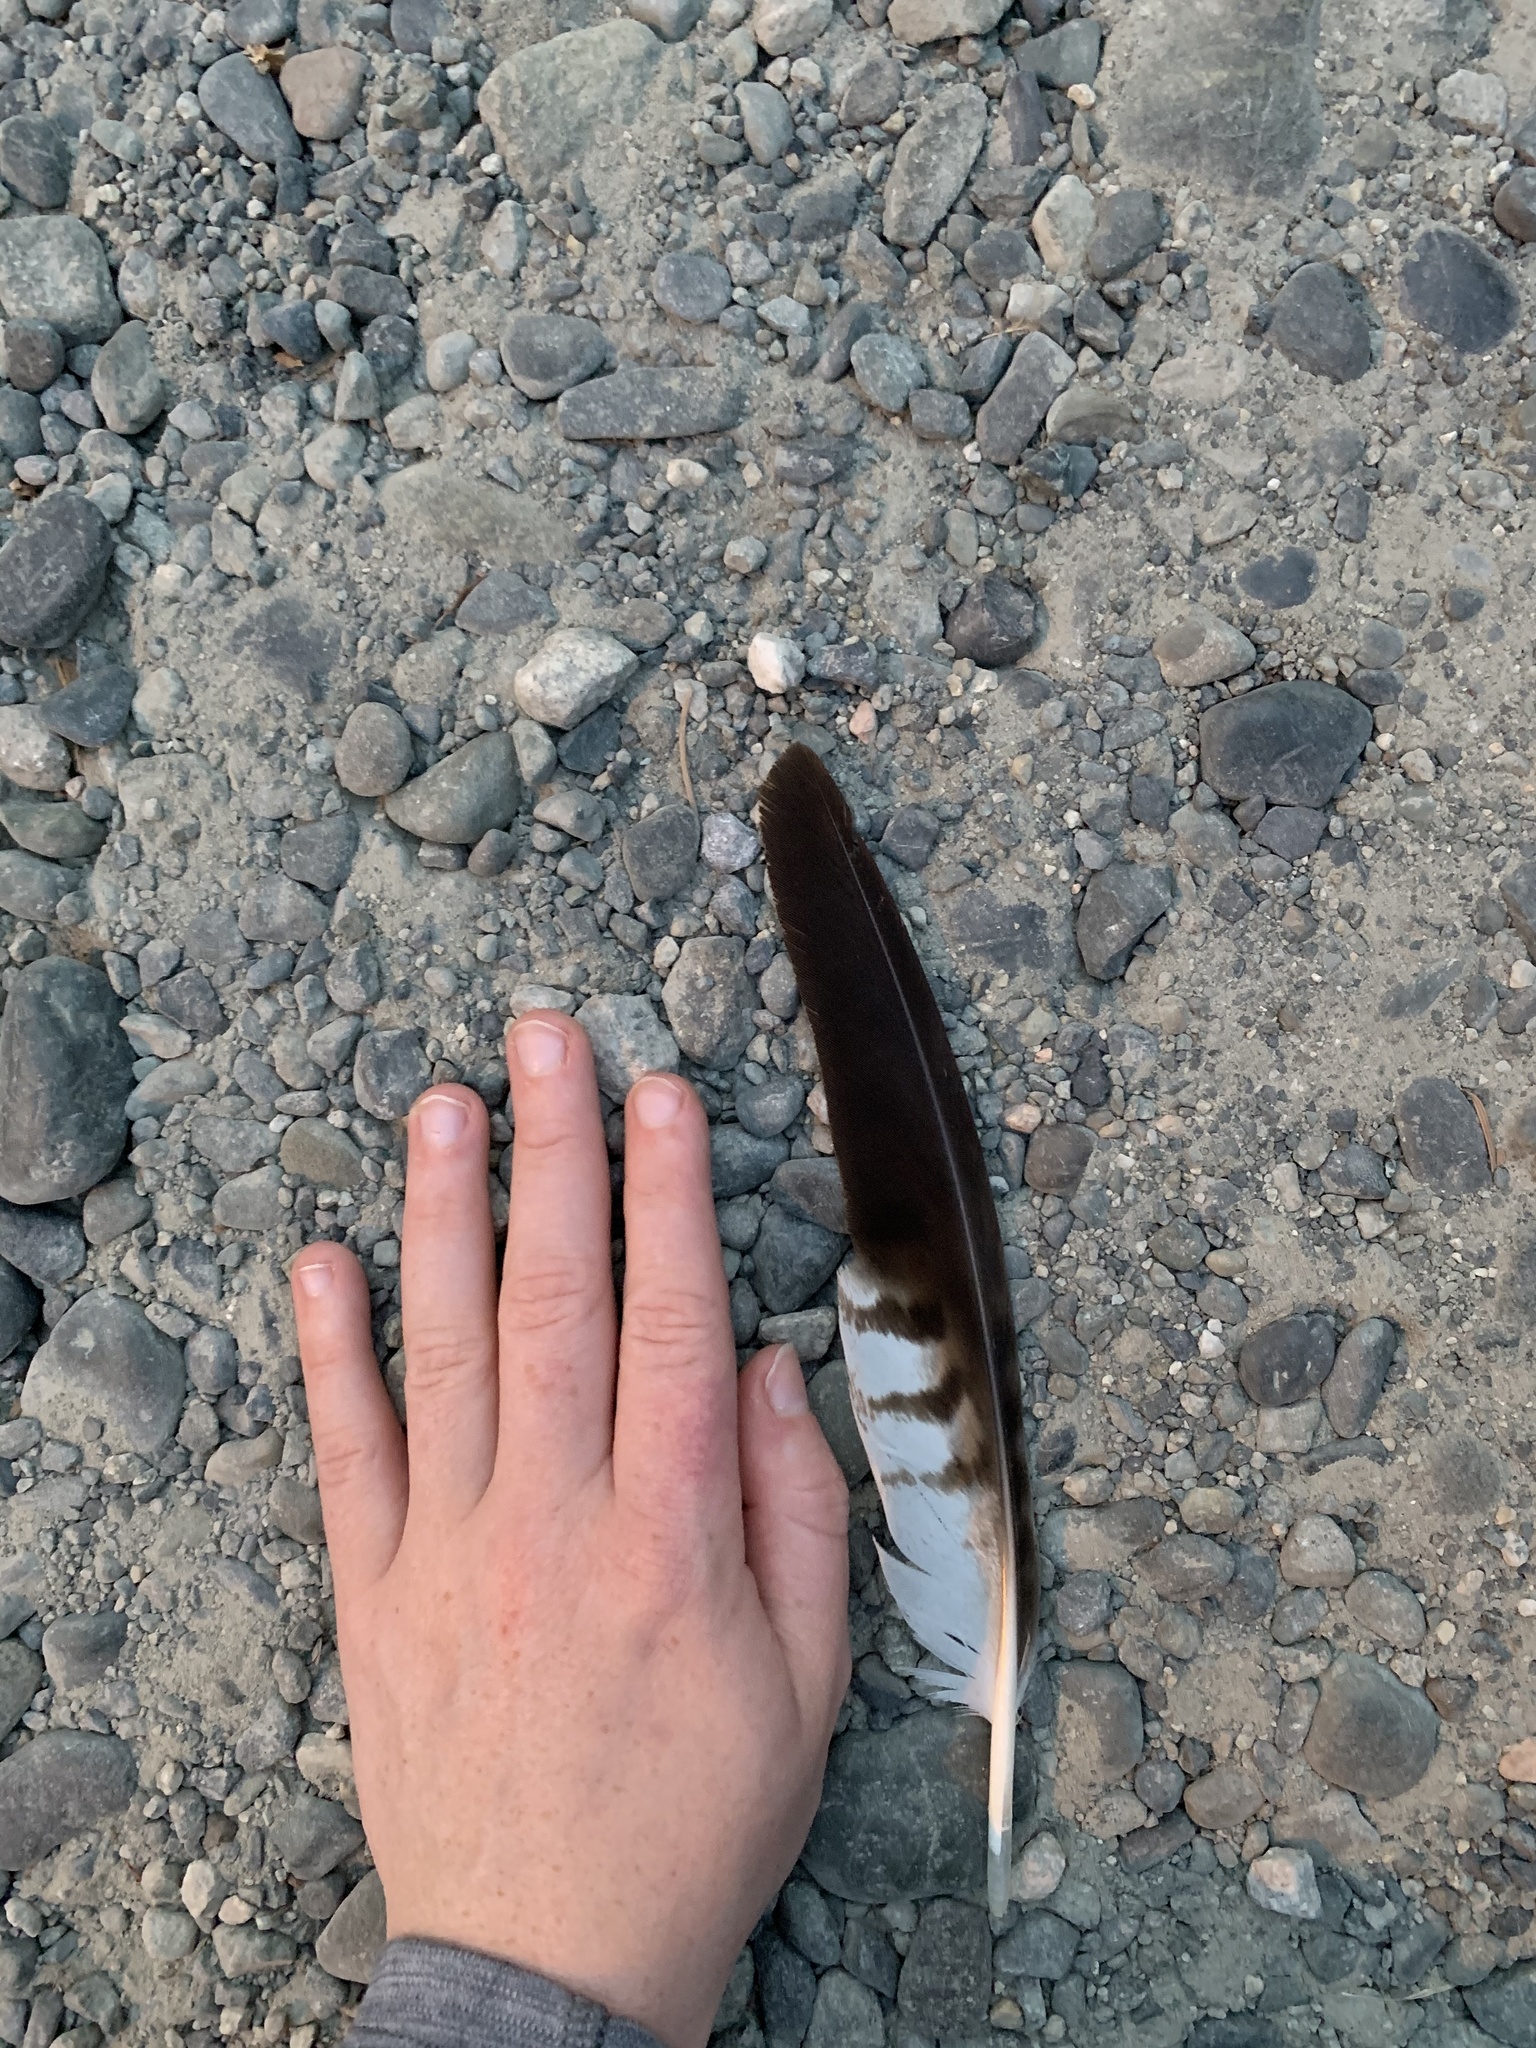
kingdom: Animalia
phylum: Chordata
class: Aves
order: Accipitriformes
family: Accipitridae
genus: Buteo
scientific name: Buteo jamaicensis
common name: Red-tailed hawk
